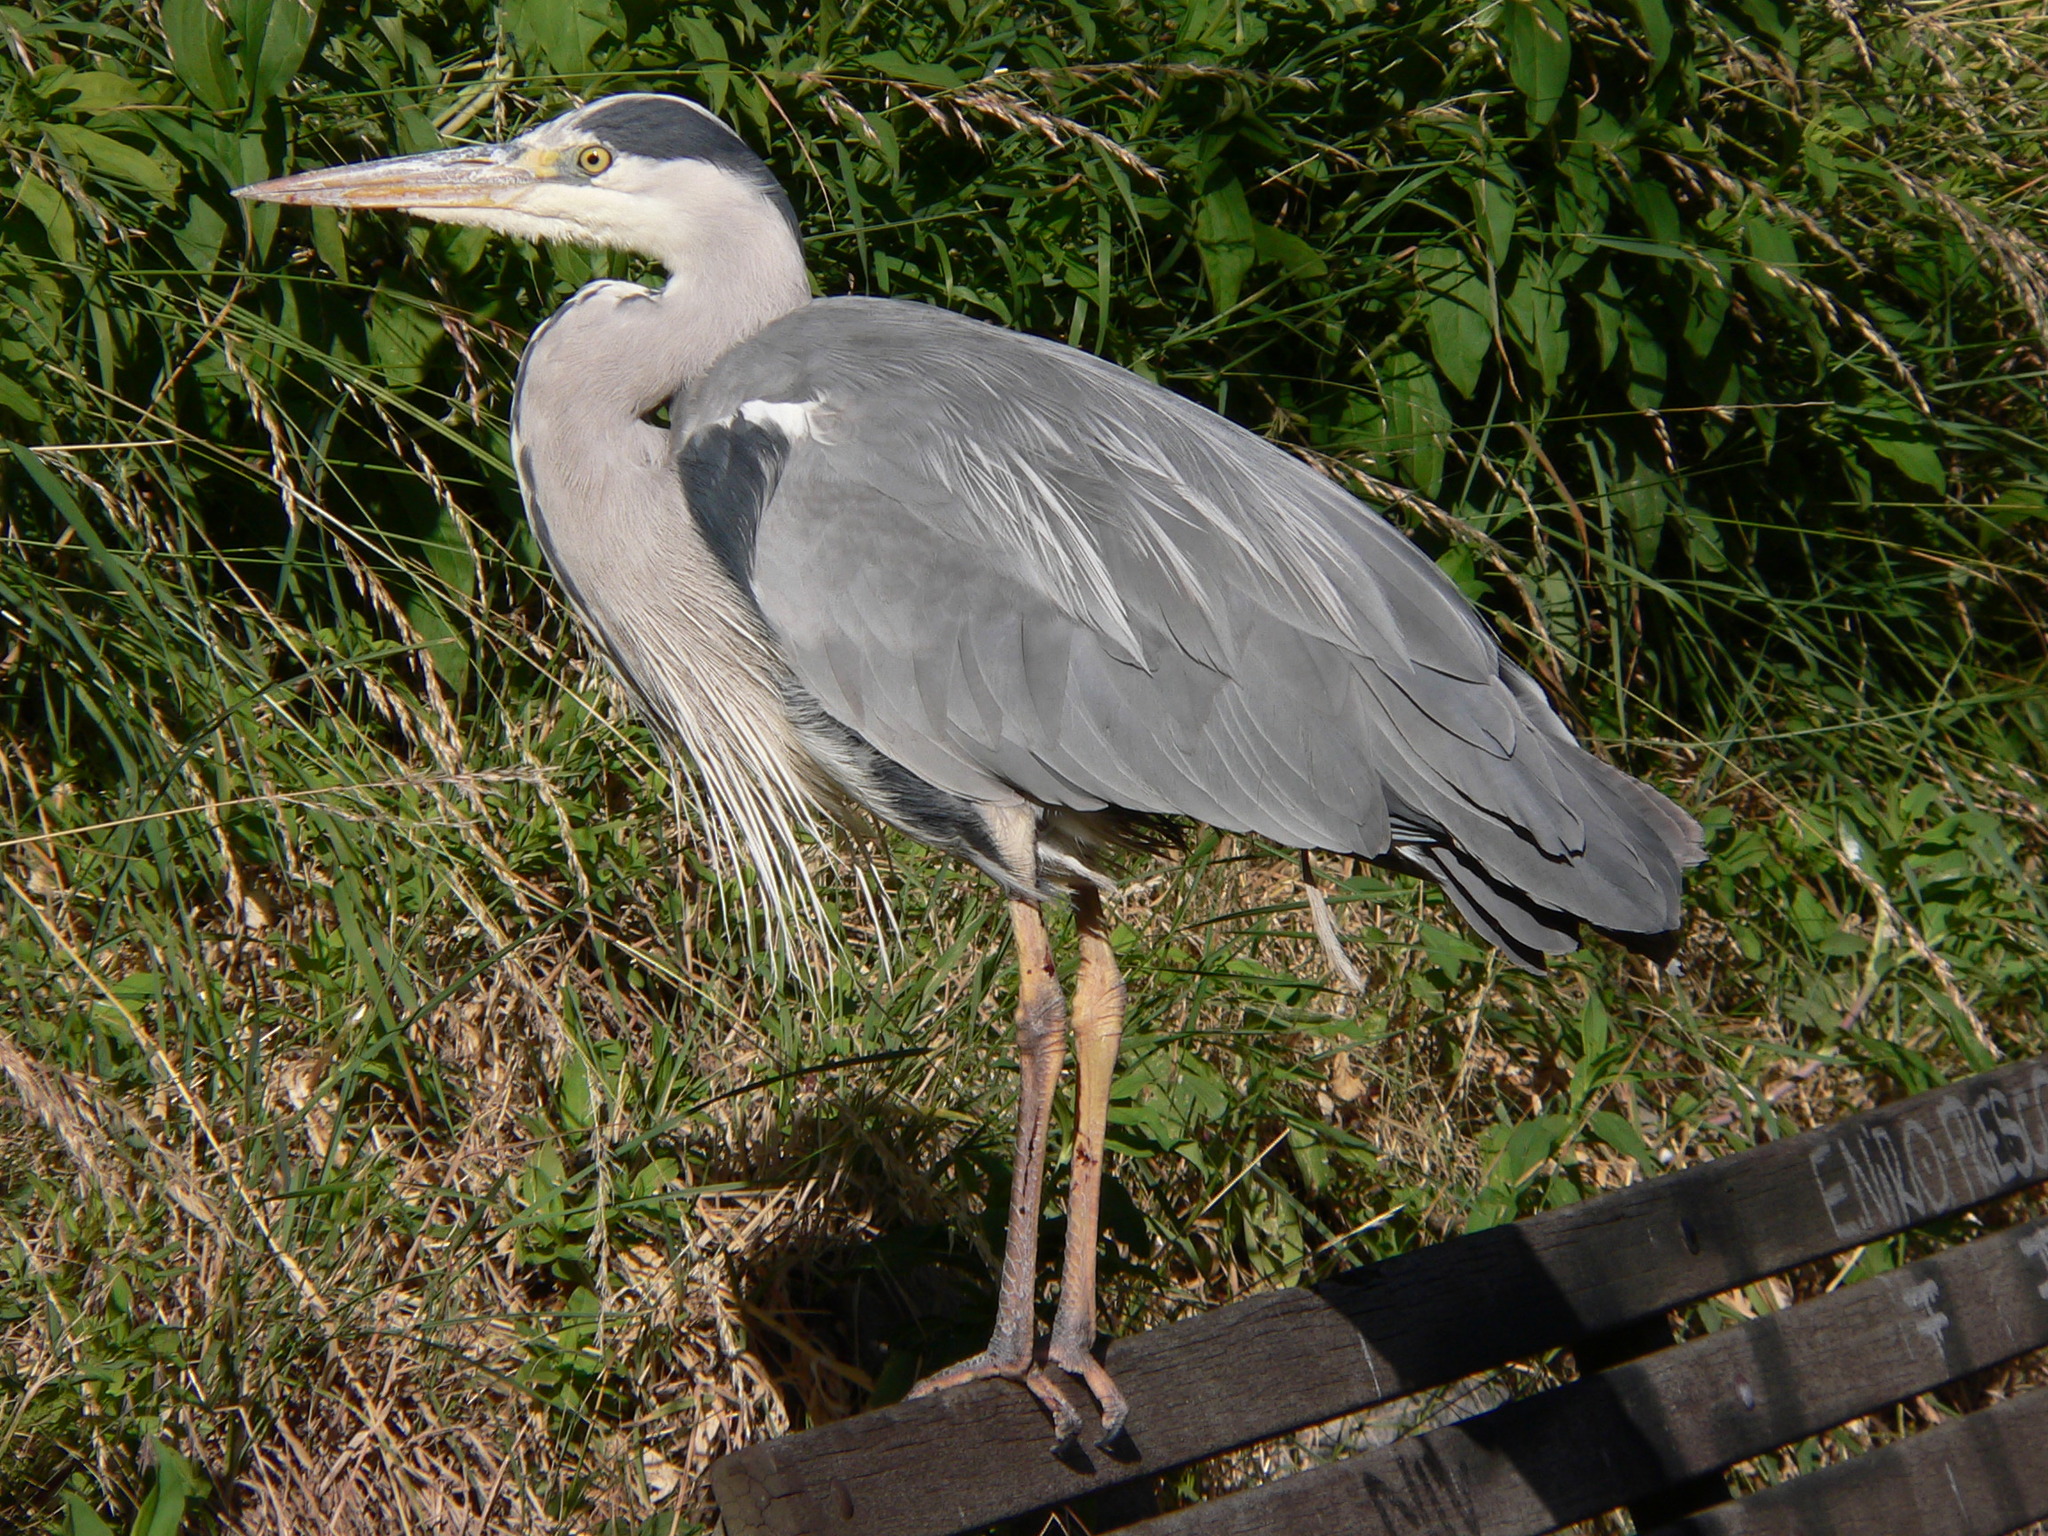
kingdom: Animalia
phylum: Chordata
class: Aves
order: Pelecaniformes
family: Ardeidae
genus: Ardea
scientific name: Ardea cinerea
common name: Grey heron
